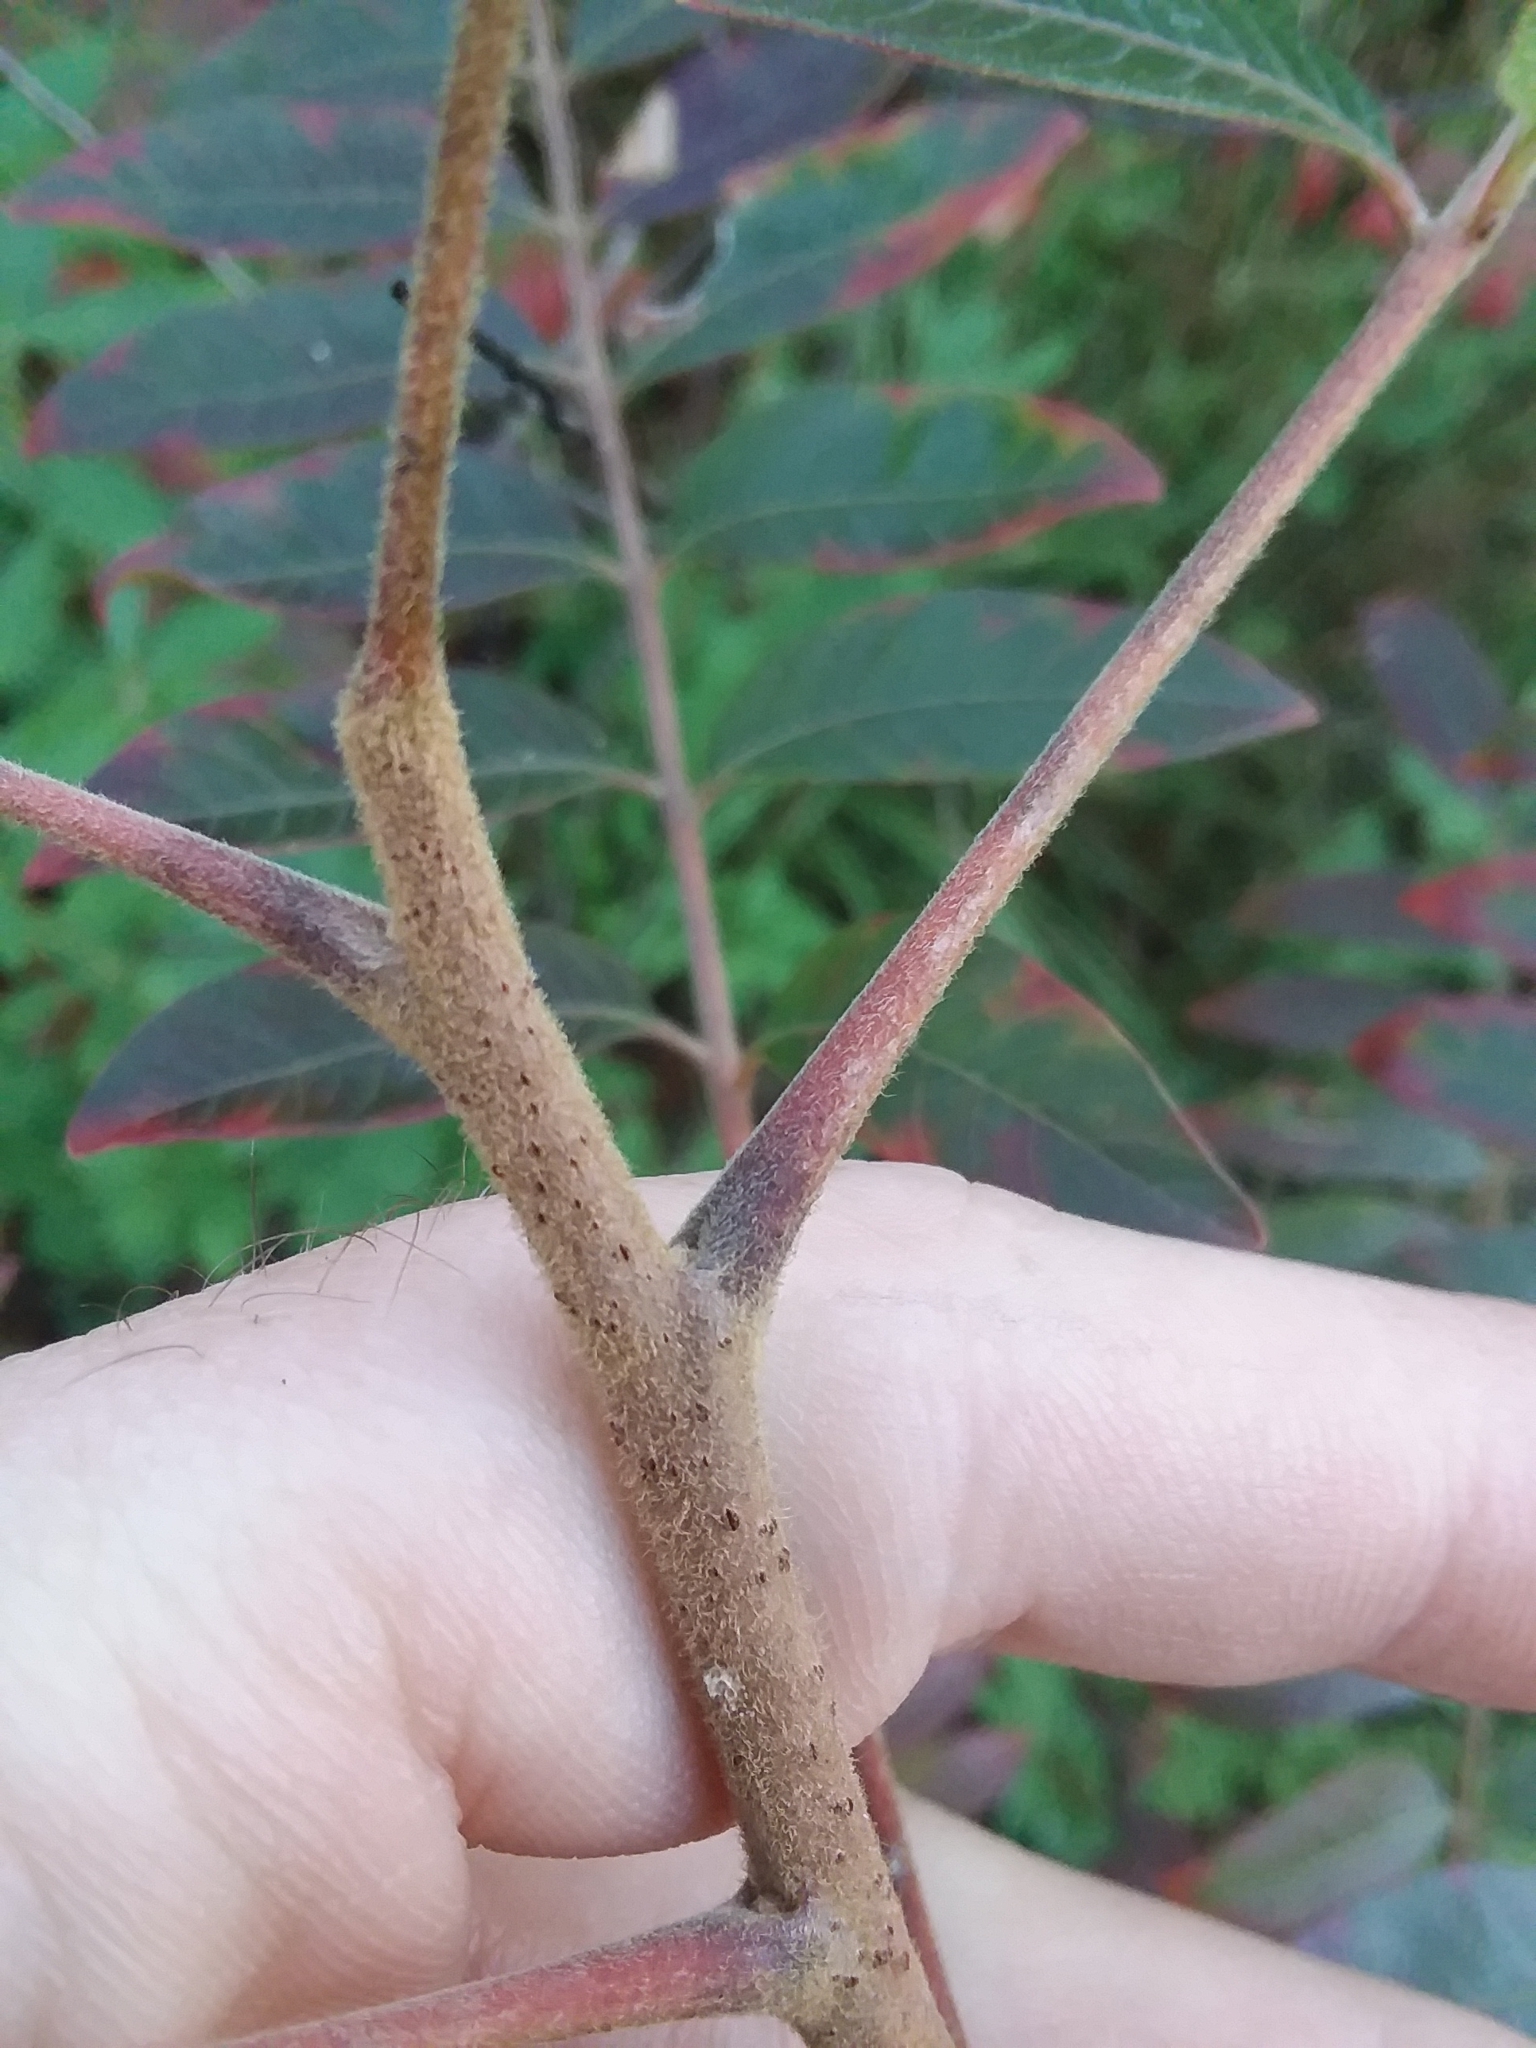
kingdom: Plantae
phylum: Tracheophyta
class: Magnoliopsida
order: Sapindales
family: Anacardiaceae
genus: Rhus
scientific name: Rhus copallina
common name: Shining sumac
